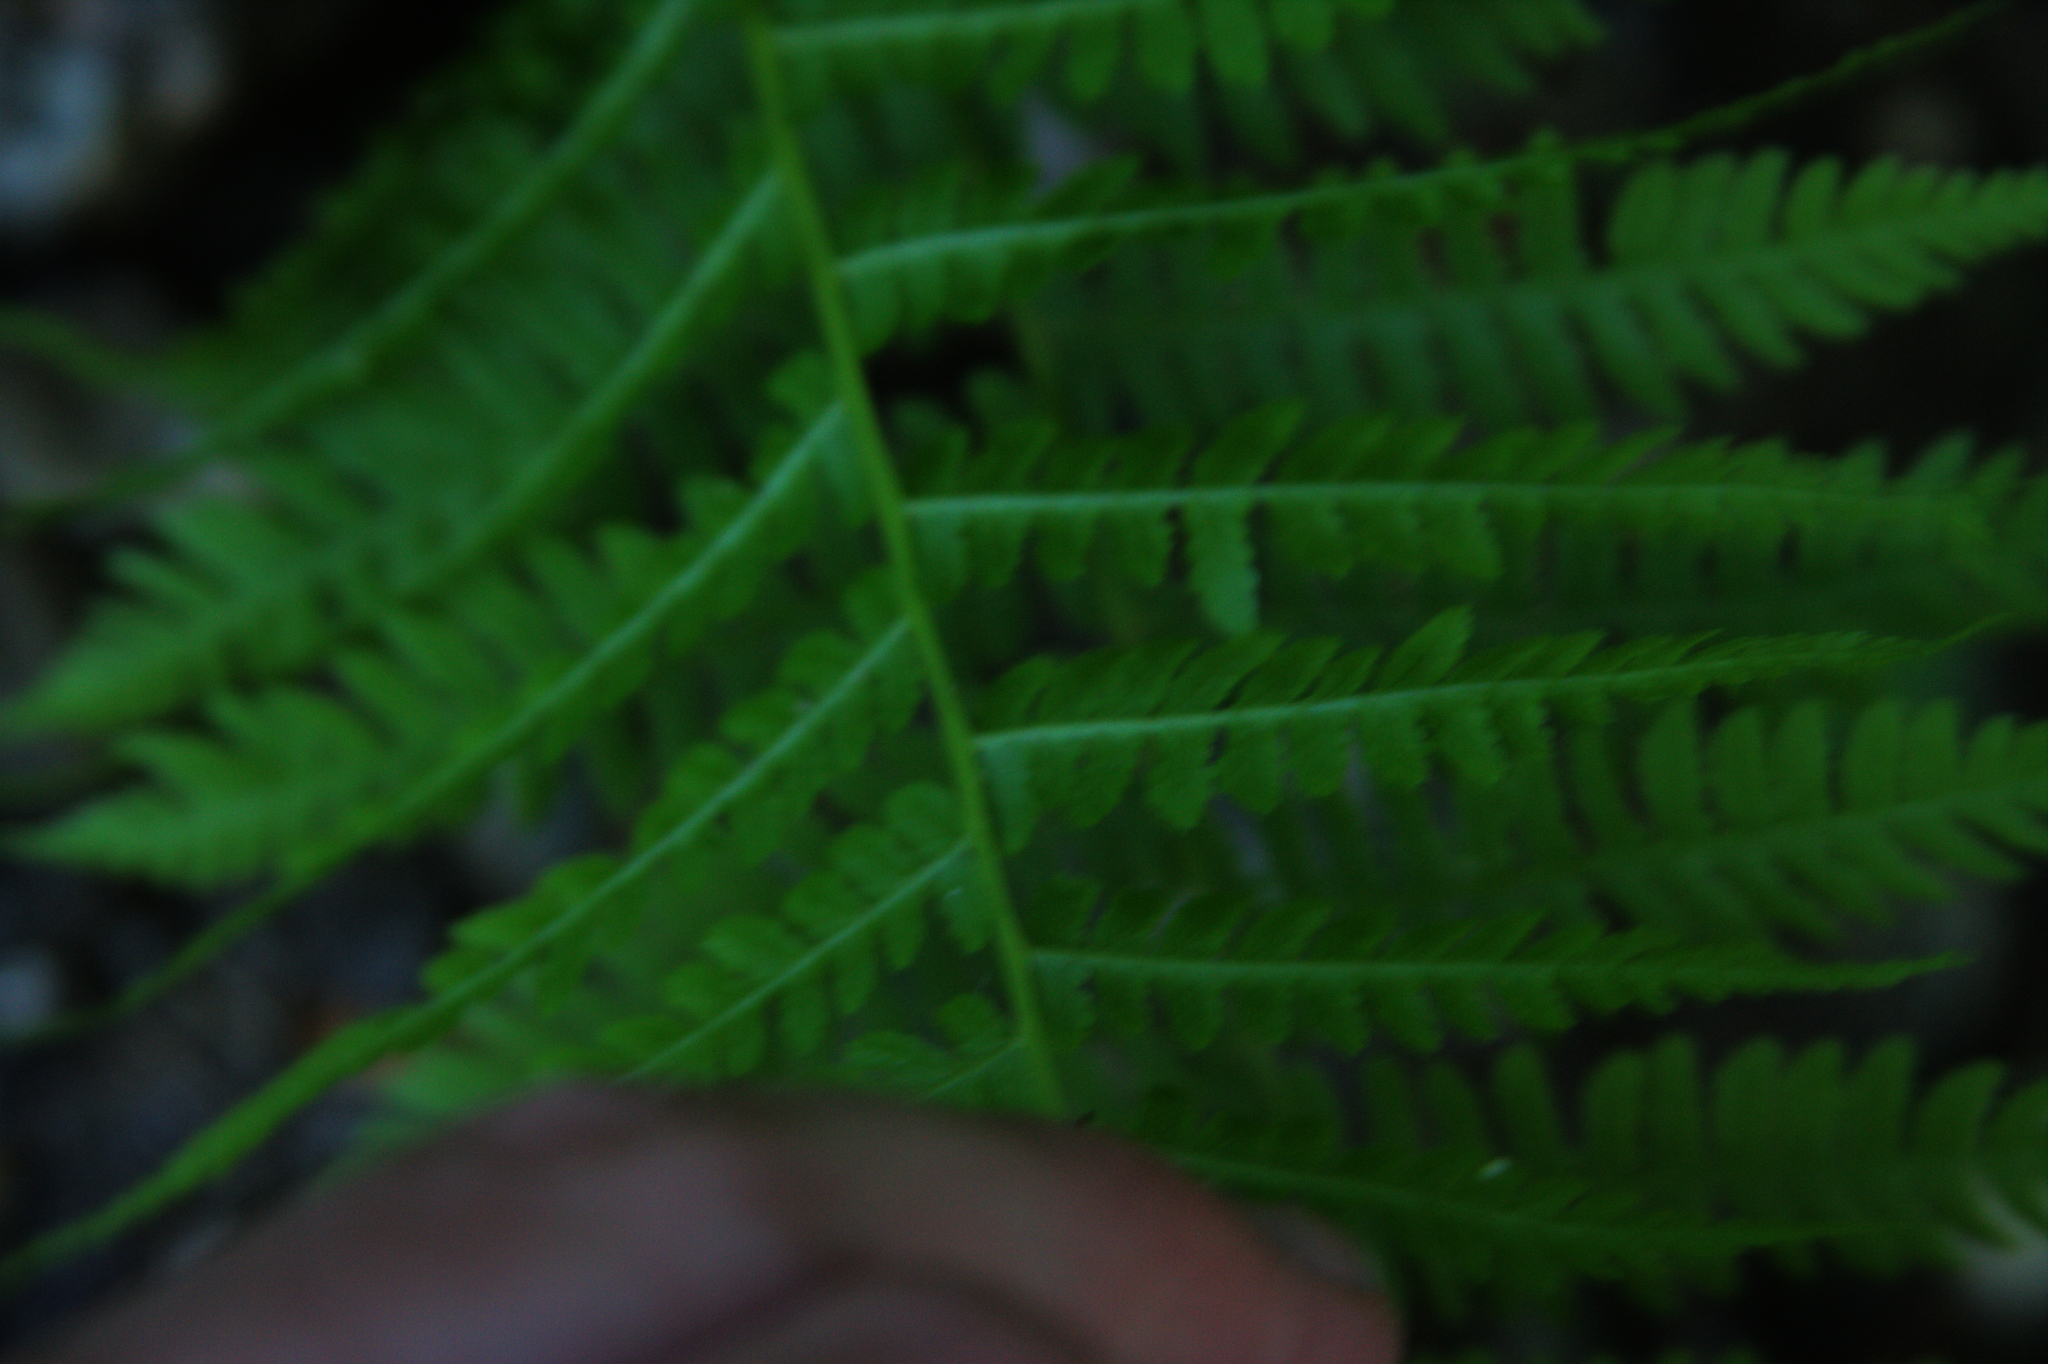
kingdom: Plantae
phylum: Tracheophyta
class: Polypodiopsida
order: Polypodiales
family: Athyriaceae
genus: Athyrium
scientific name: Athyrium angustum
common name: Northern lady fern
